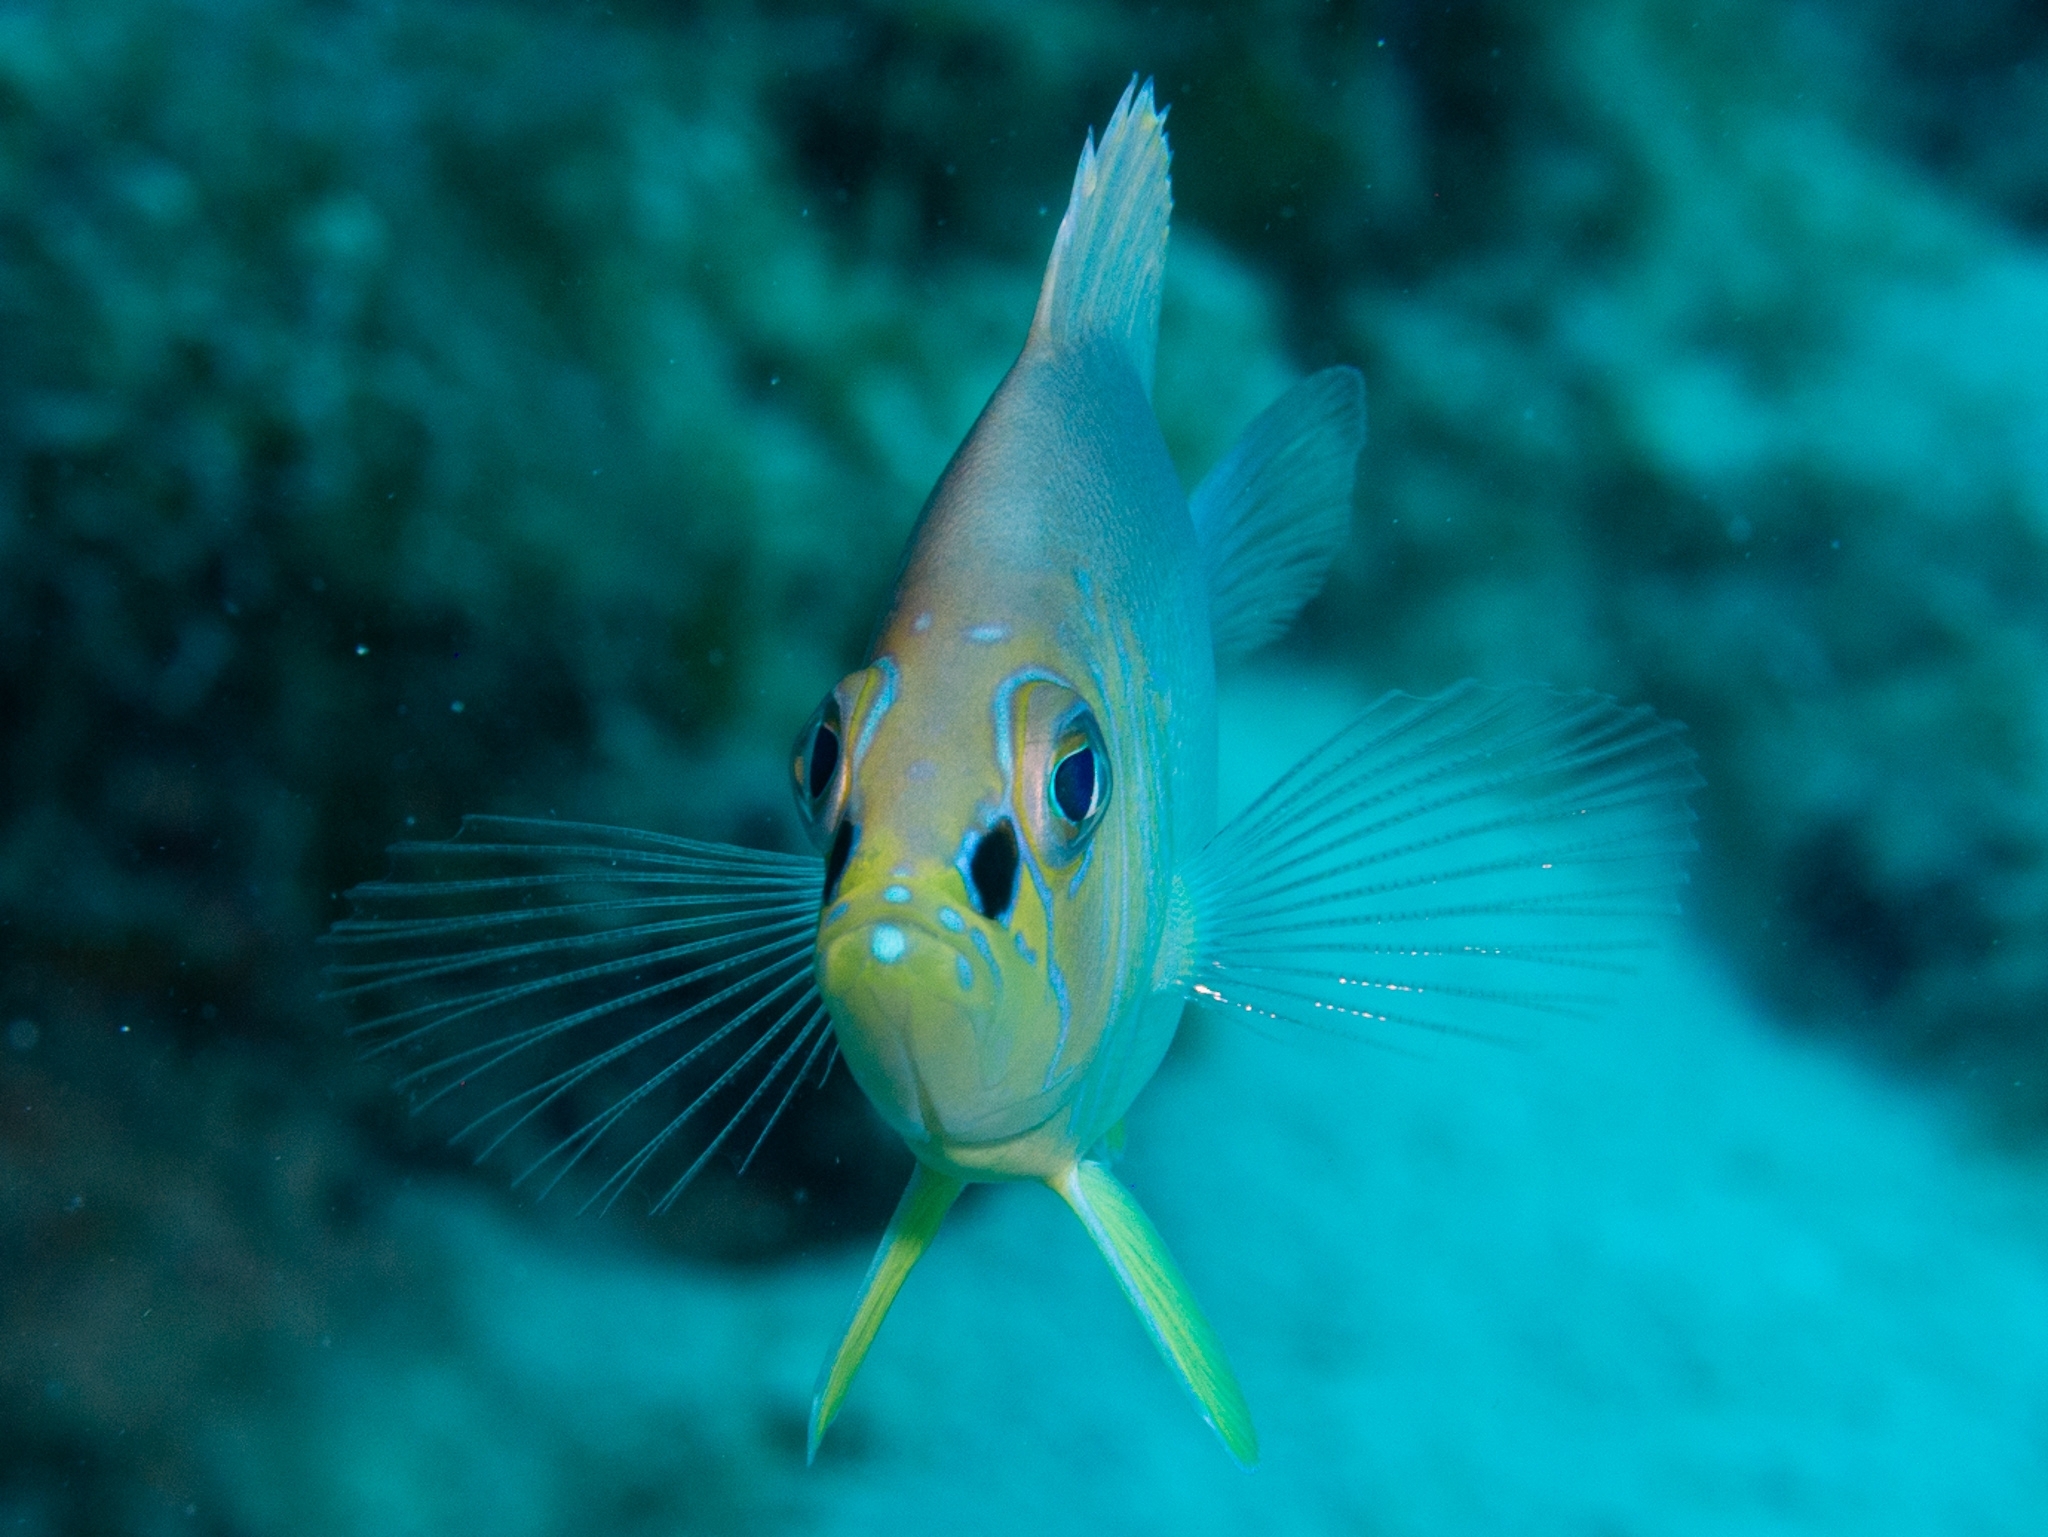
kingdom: Animalia
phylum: Chordata
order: Perciformes
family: Serranidae
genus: Hypoplectrus
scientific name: Hypoplectrus unicolor
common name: Butter hamlet
